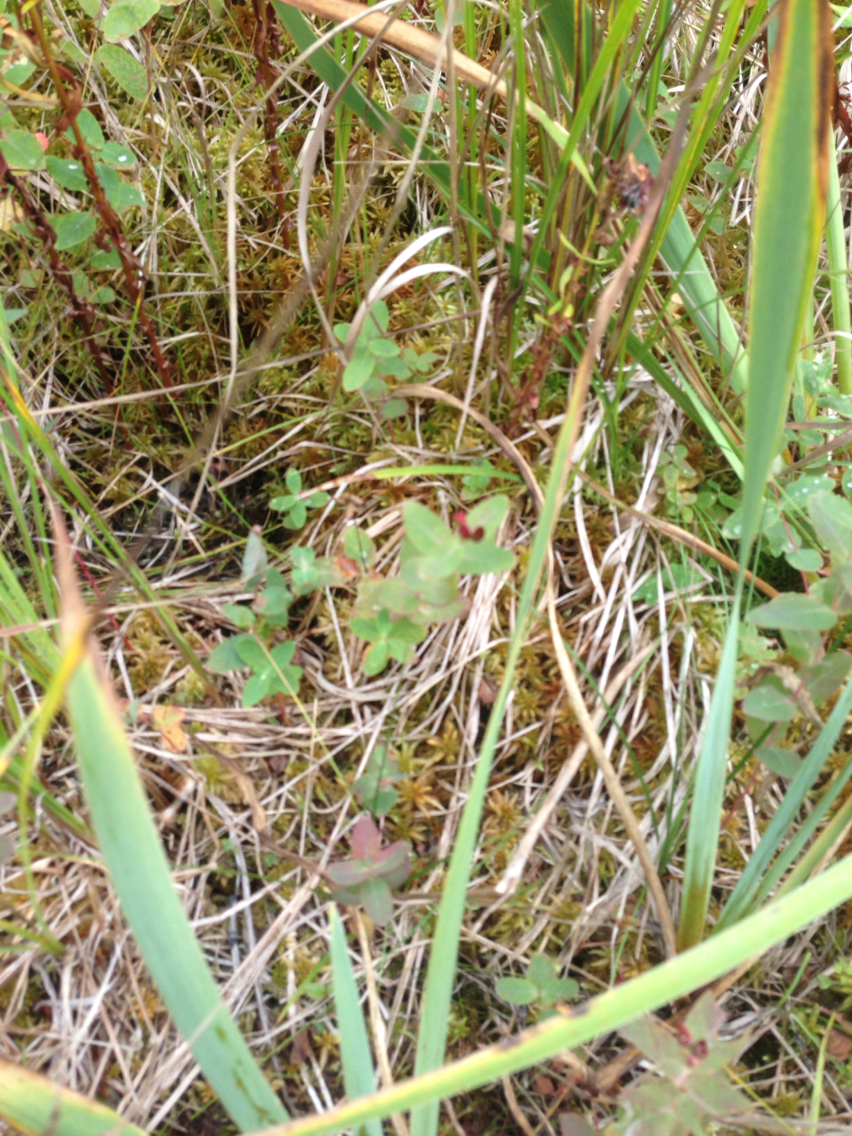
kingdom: Plantae
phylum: Tracheophyta
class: Magnoliopsida
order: Malpighiales
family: Hypericaceae
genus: Triadenum
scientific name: Triadenum virginicum
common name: Marsh st. john's-wort
